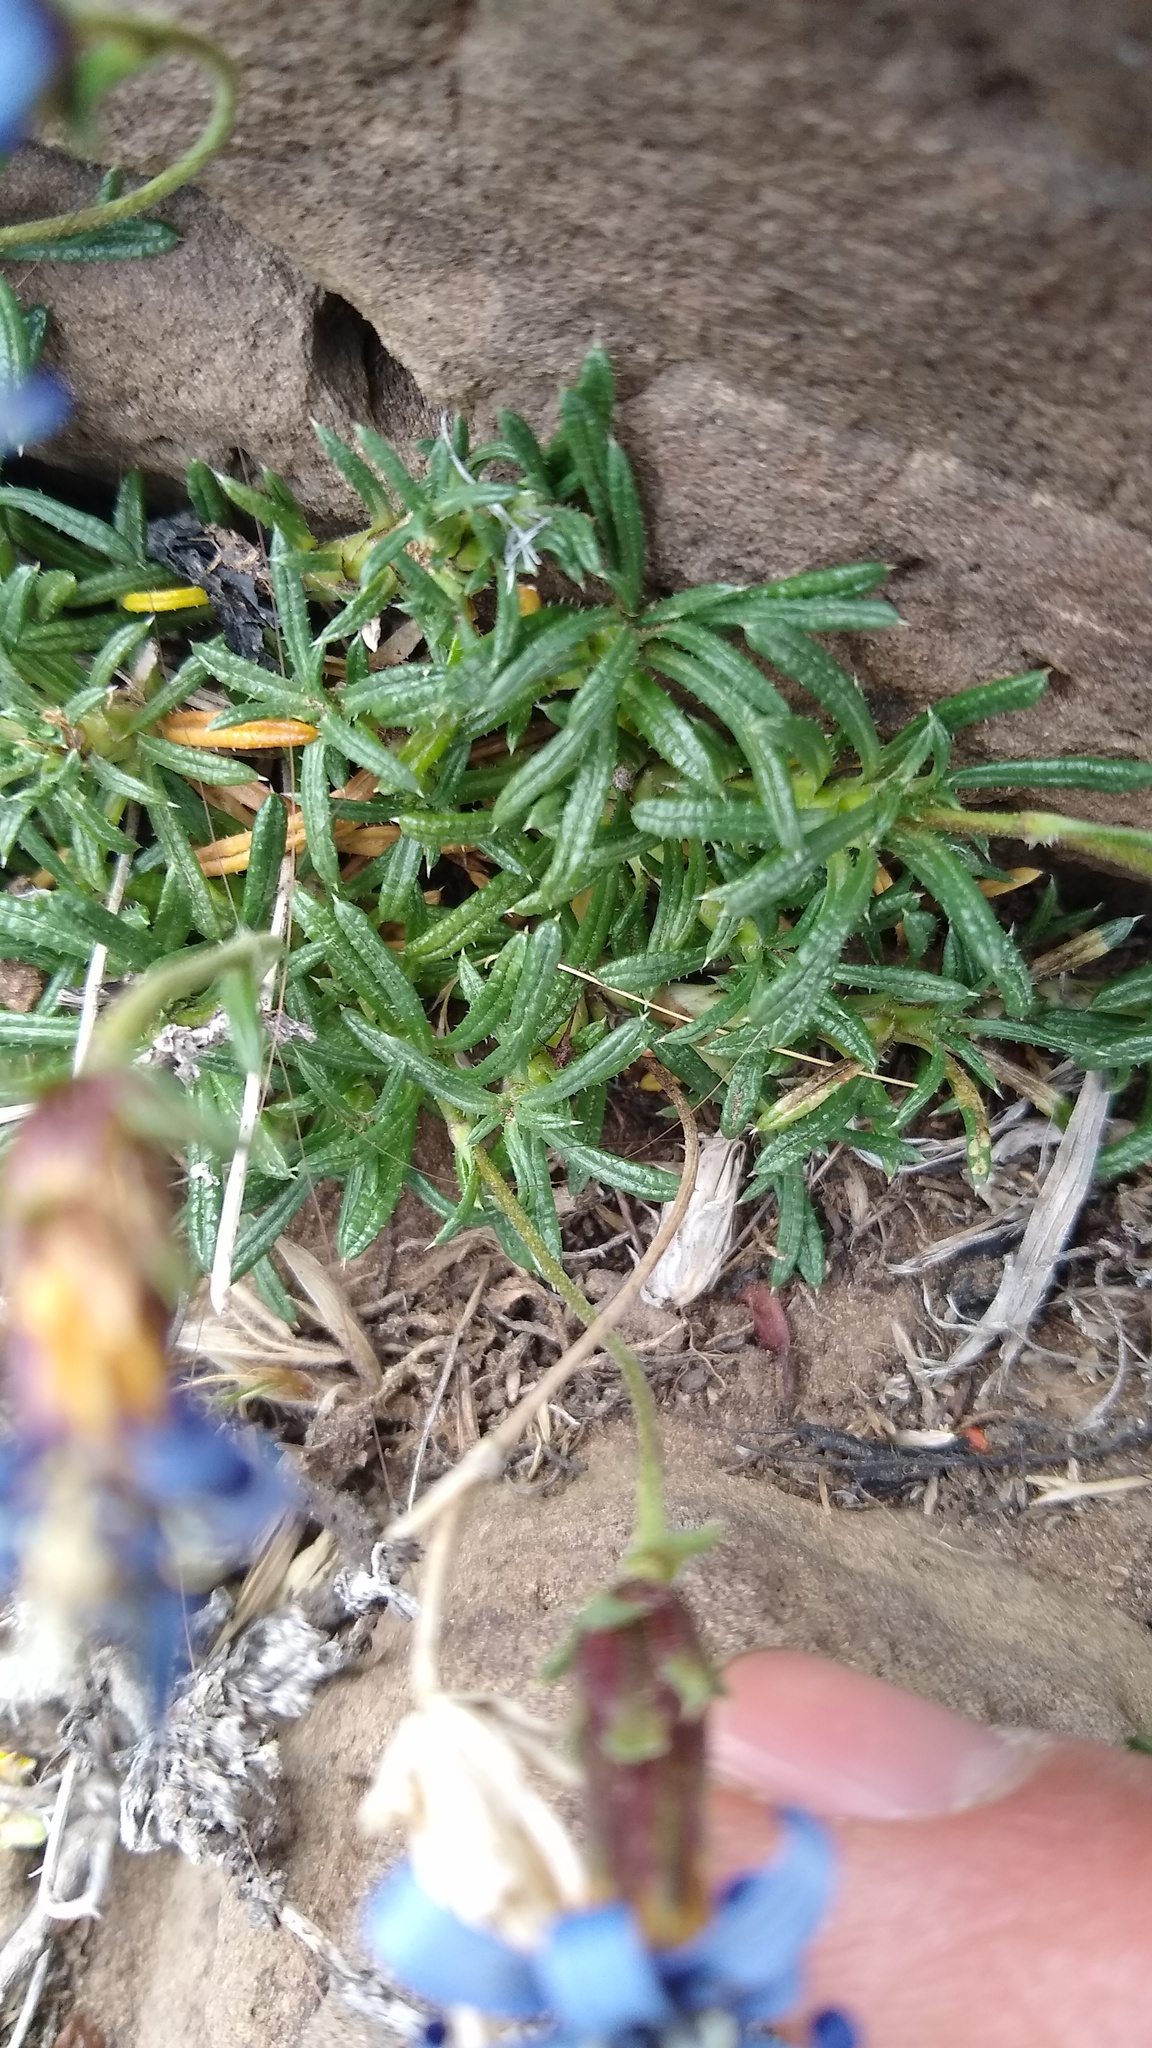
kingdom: Plantae
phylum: Tracheophyta
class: Magnoliopsida
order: Asterales
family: Asteraceae
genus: Perezia
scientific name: Perezia recurvata
